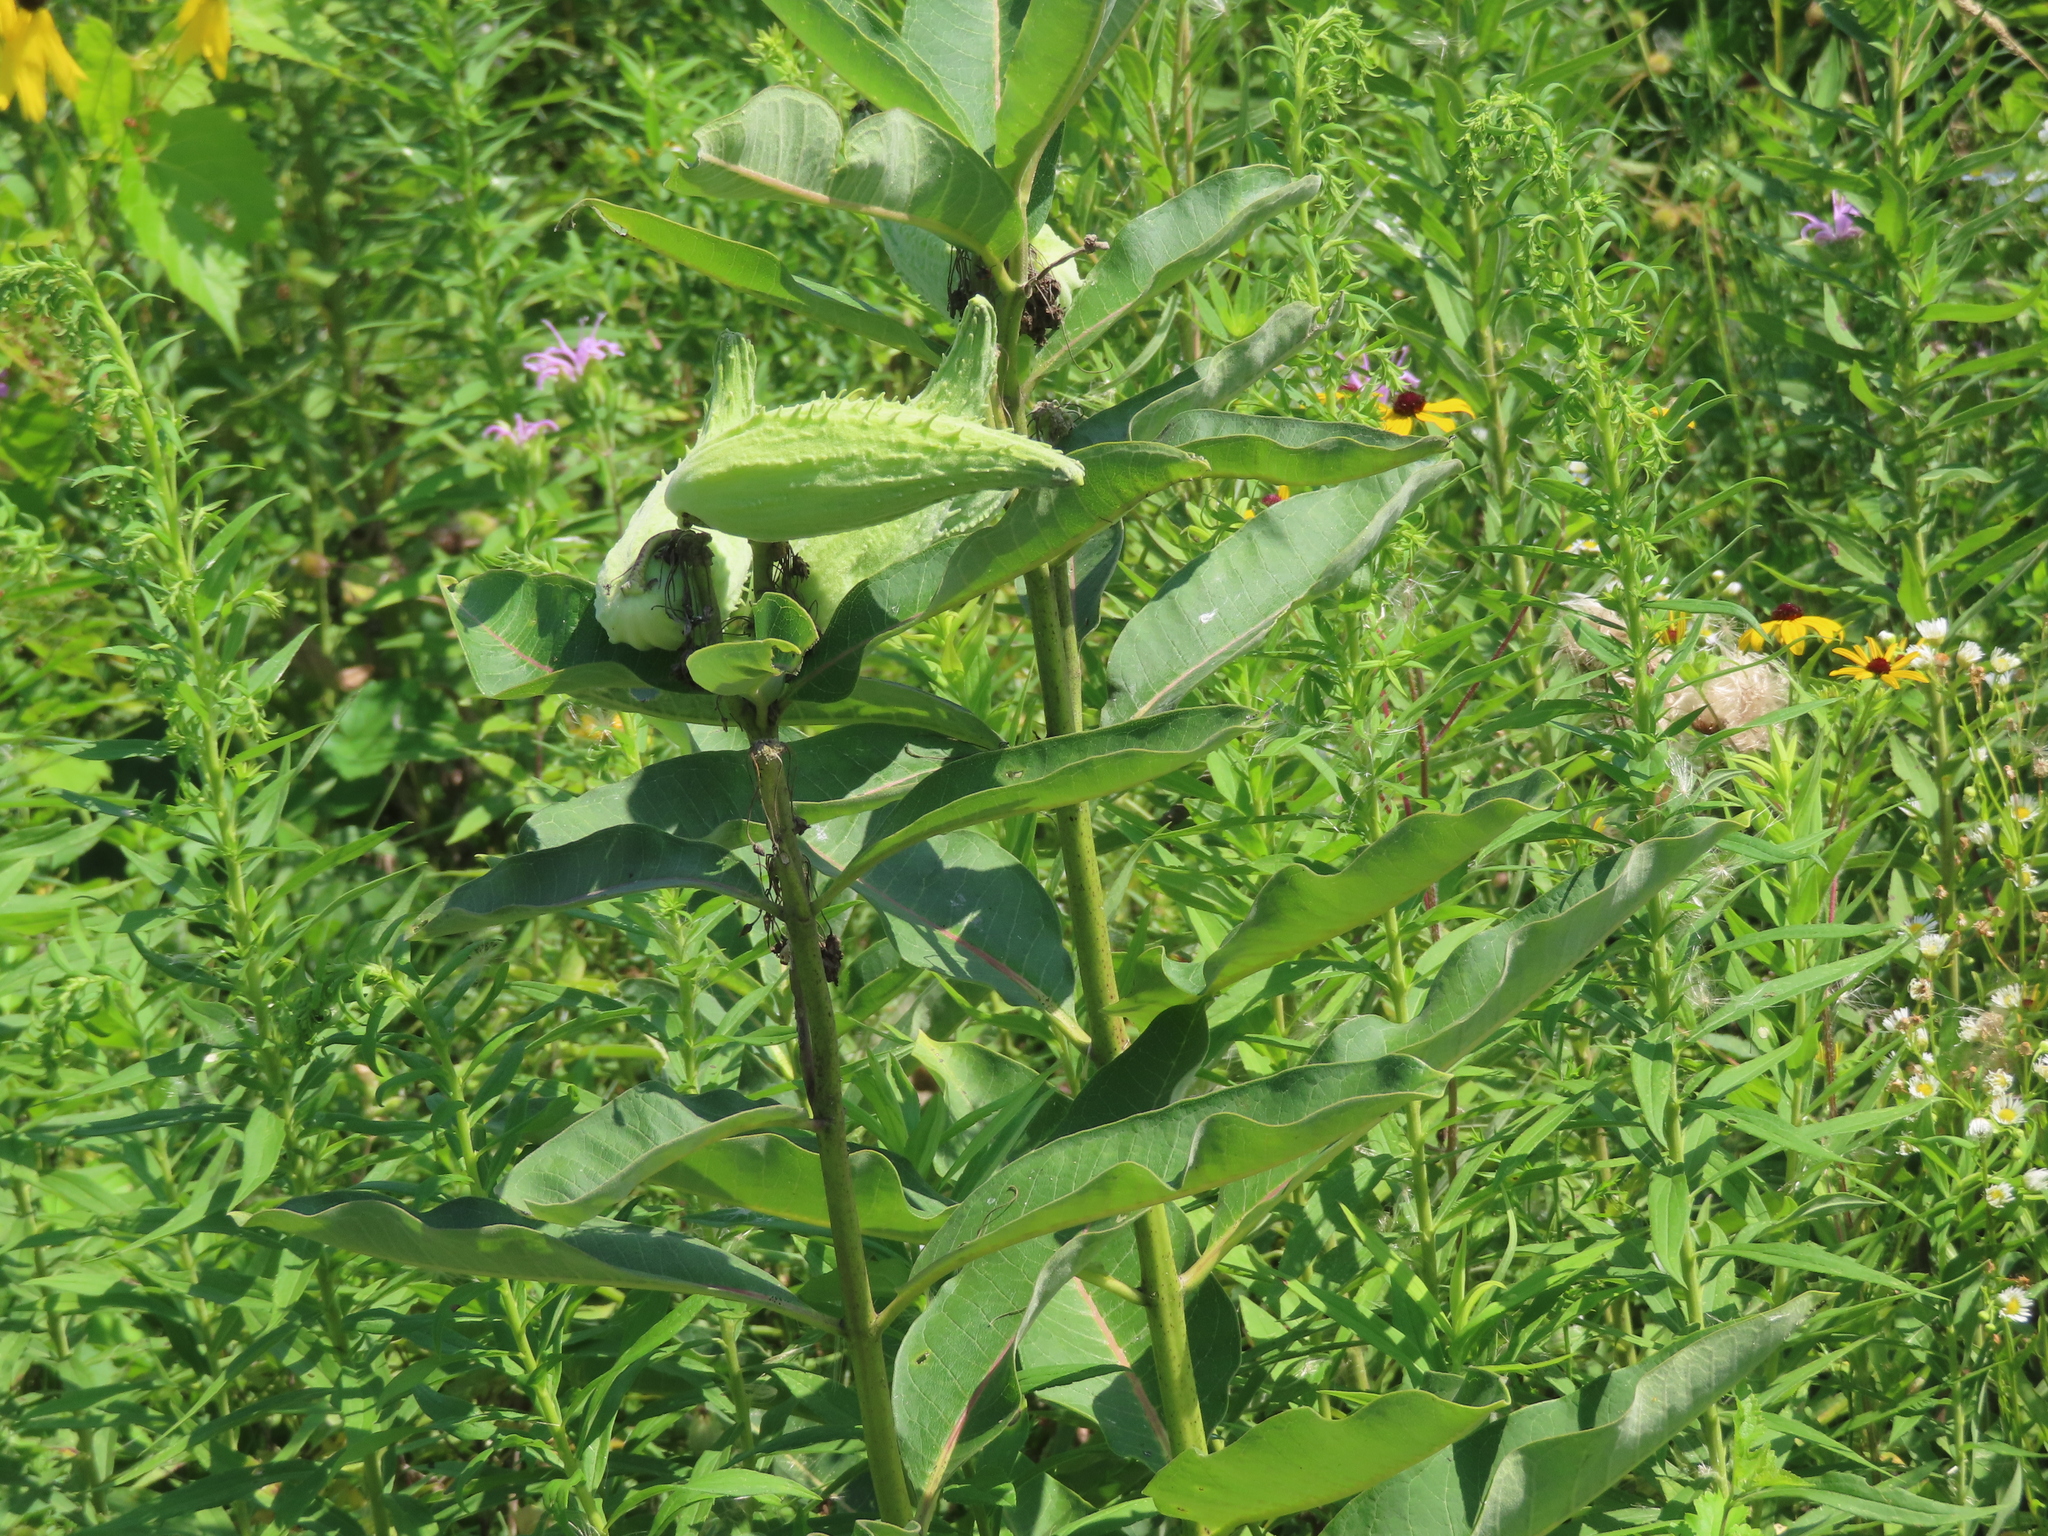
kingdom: Plantae
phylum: Tracheophyta
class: Magnoliopsida
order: Gentianales
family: Apocynaceae
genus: Asclepias
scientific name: Asclepias syriaca
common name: Common milkweed
